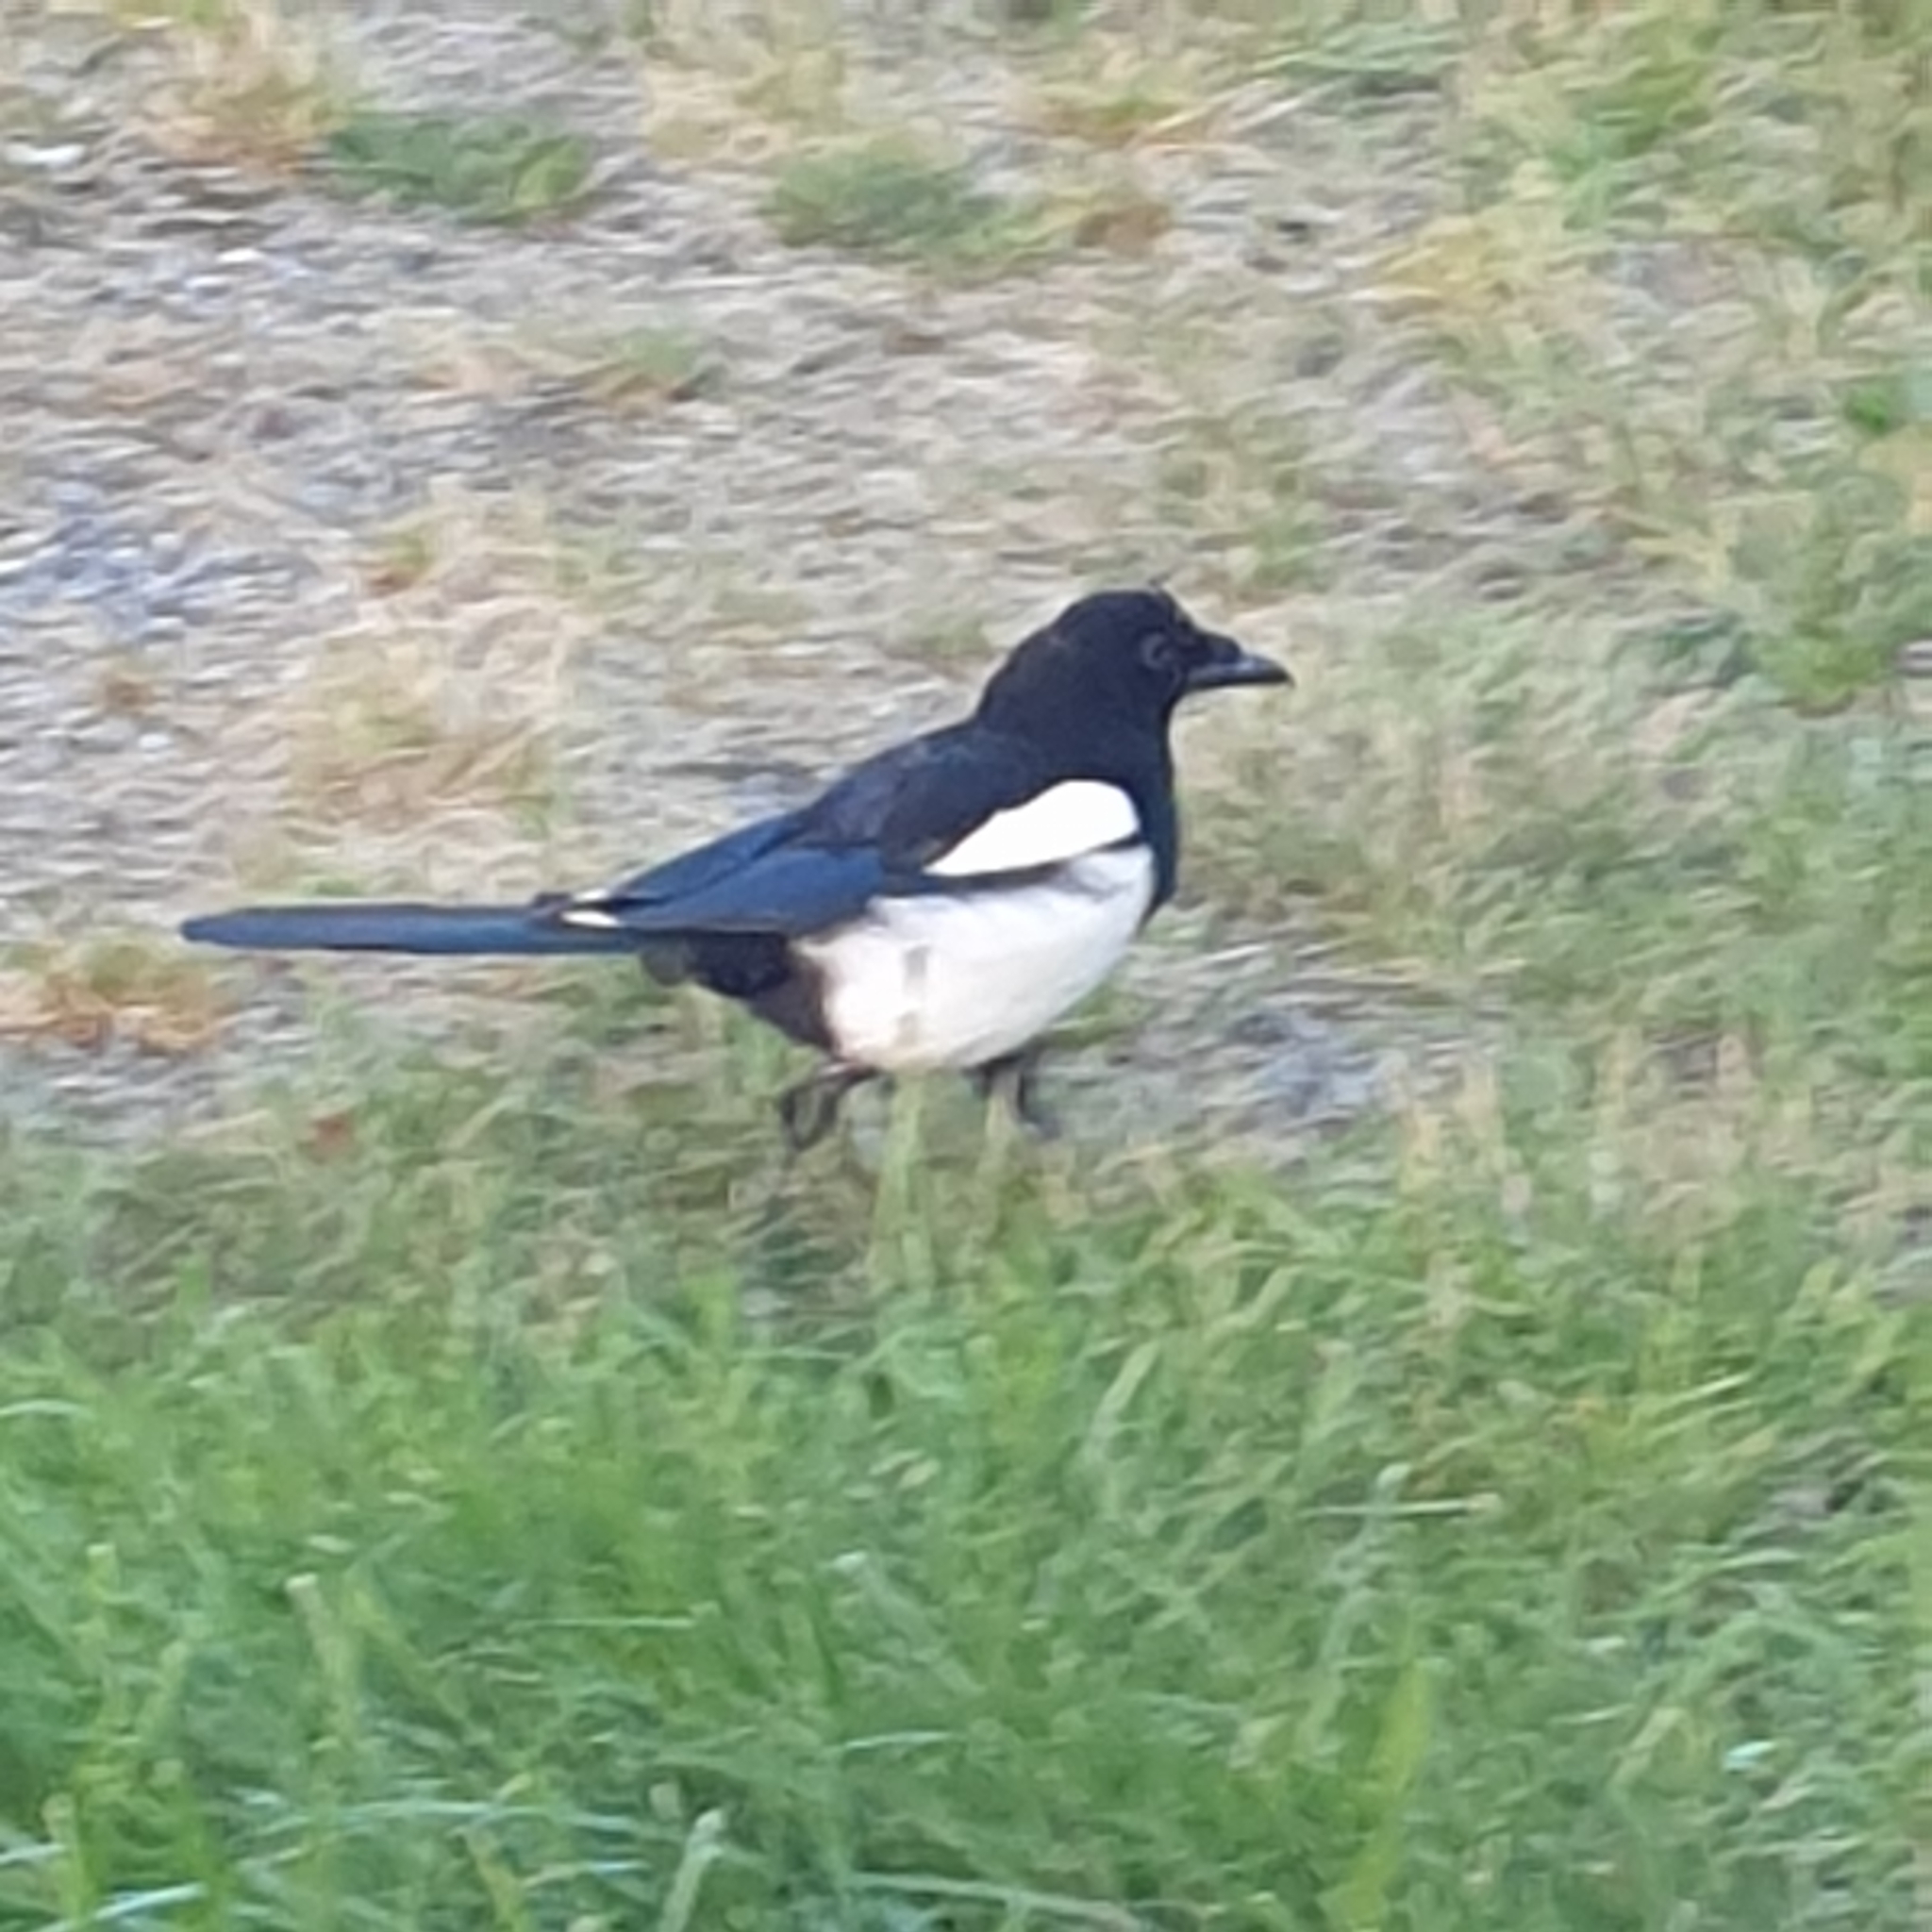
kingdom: Animalia
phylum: Chordata
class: Aves
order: Passeriformes
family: Corvidae
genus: Pica
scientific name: Pica pica
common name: Eurasian magpie
